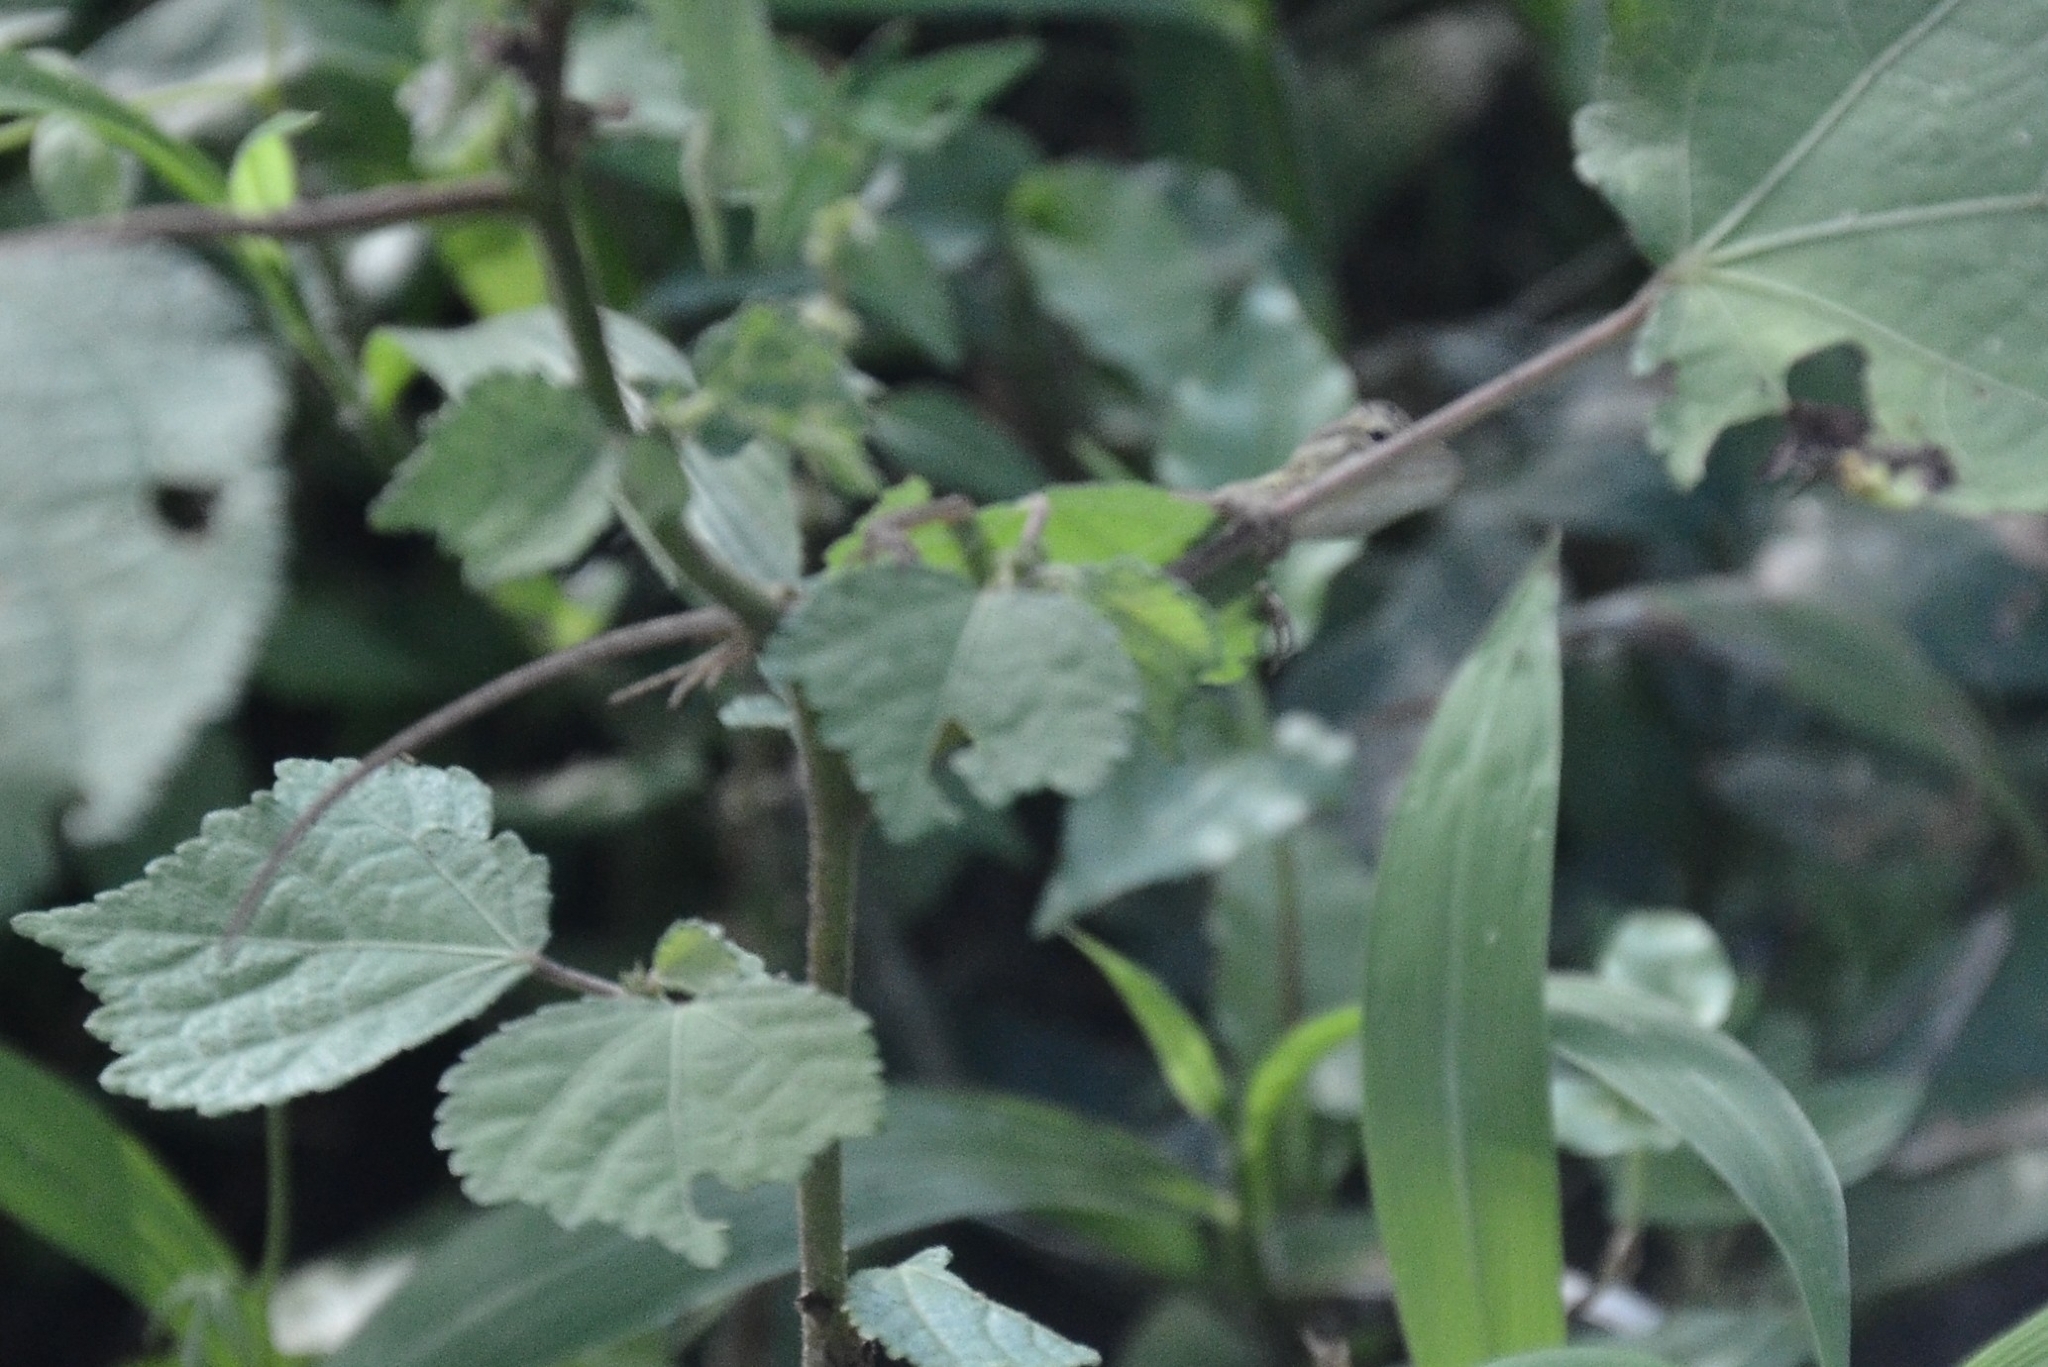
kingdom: Animalia
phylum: Chordata
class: Squamata
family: Agamidae
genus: Calotes
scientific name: Calotes versicolor
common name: Oriental garden lizard
